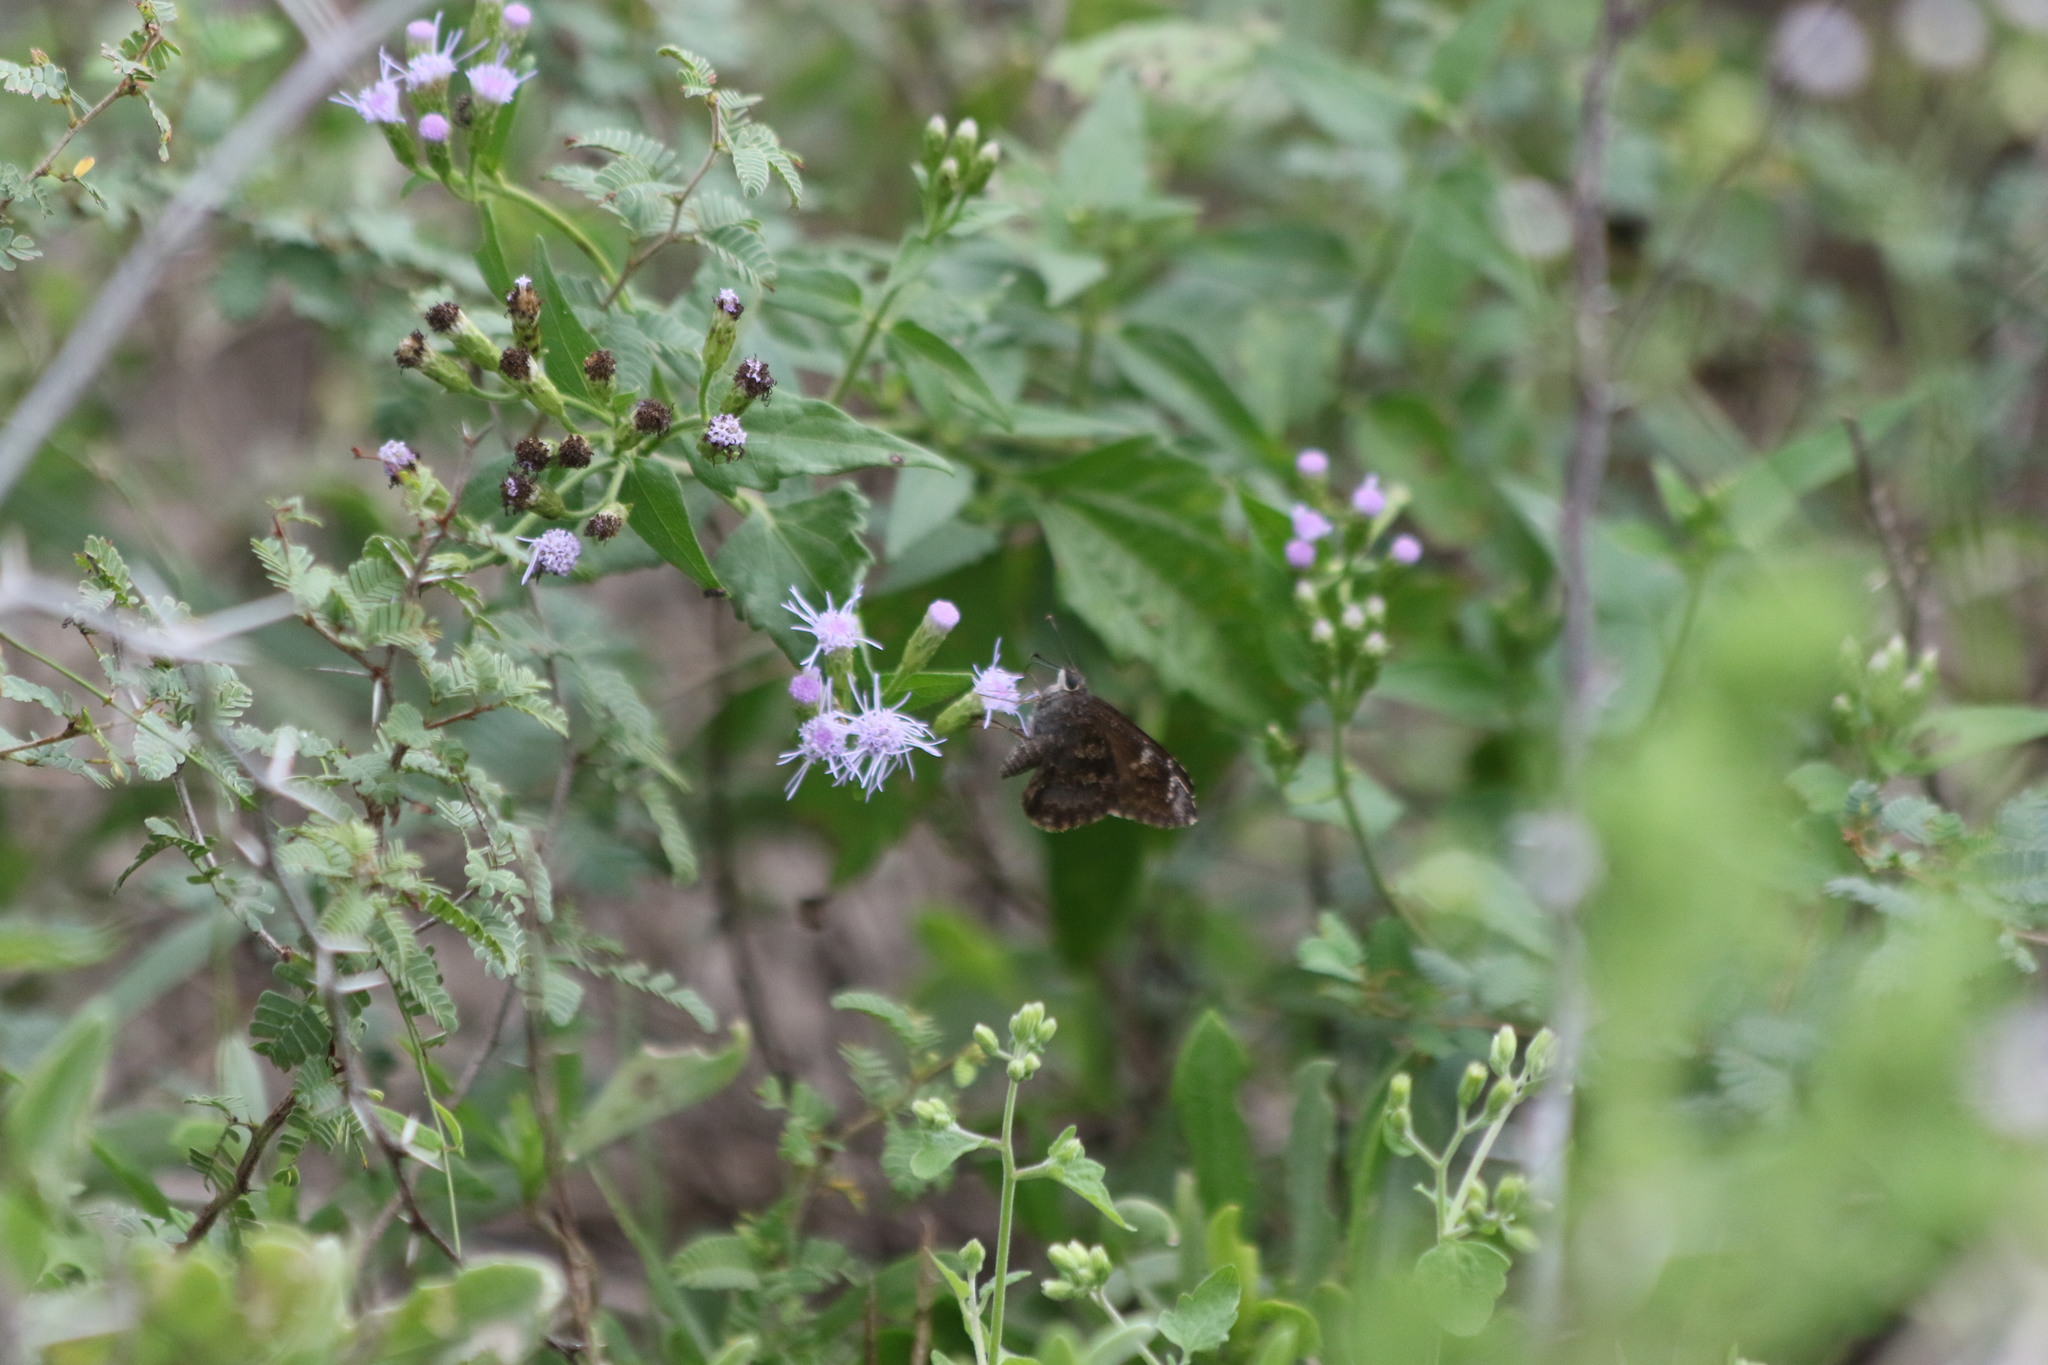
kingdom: Animalia
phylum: Arthropoda
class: Insecta
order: Lepidoptera
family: Hesperiidae
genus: Caicella
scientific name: Caicella calchas
